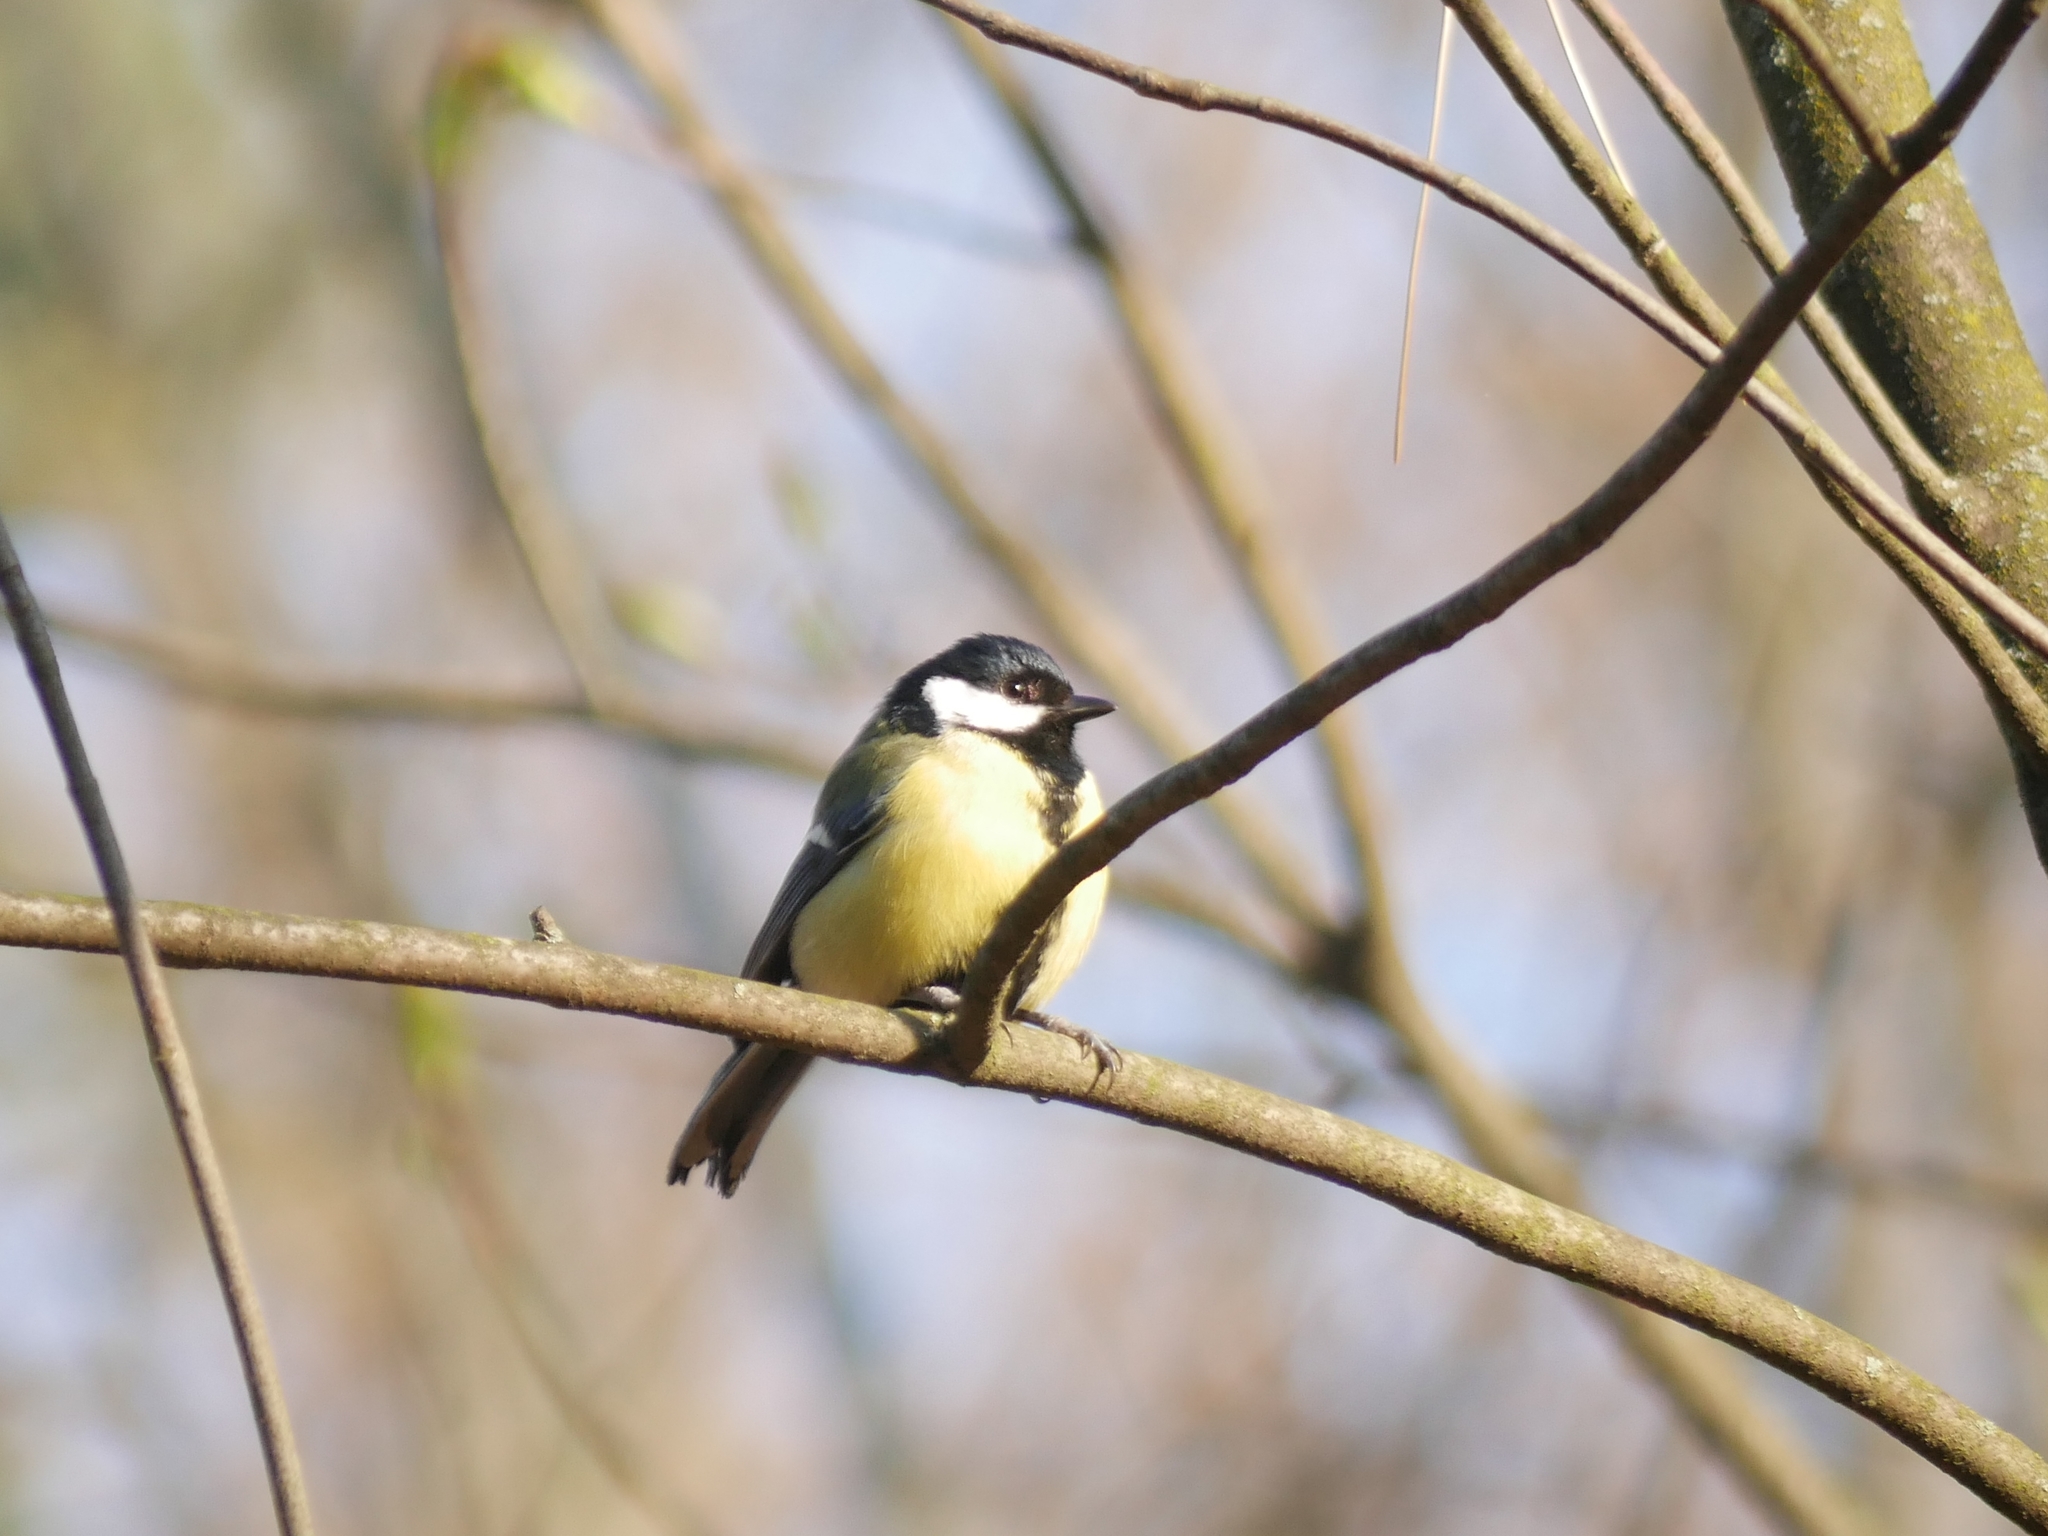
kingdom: Animalia
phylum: Chordata
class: Aves
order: Passeriformes
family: Paridae
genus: Parus
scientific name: Parus major
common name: Great tit
